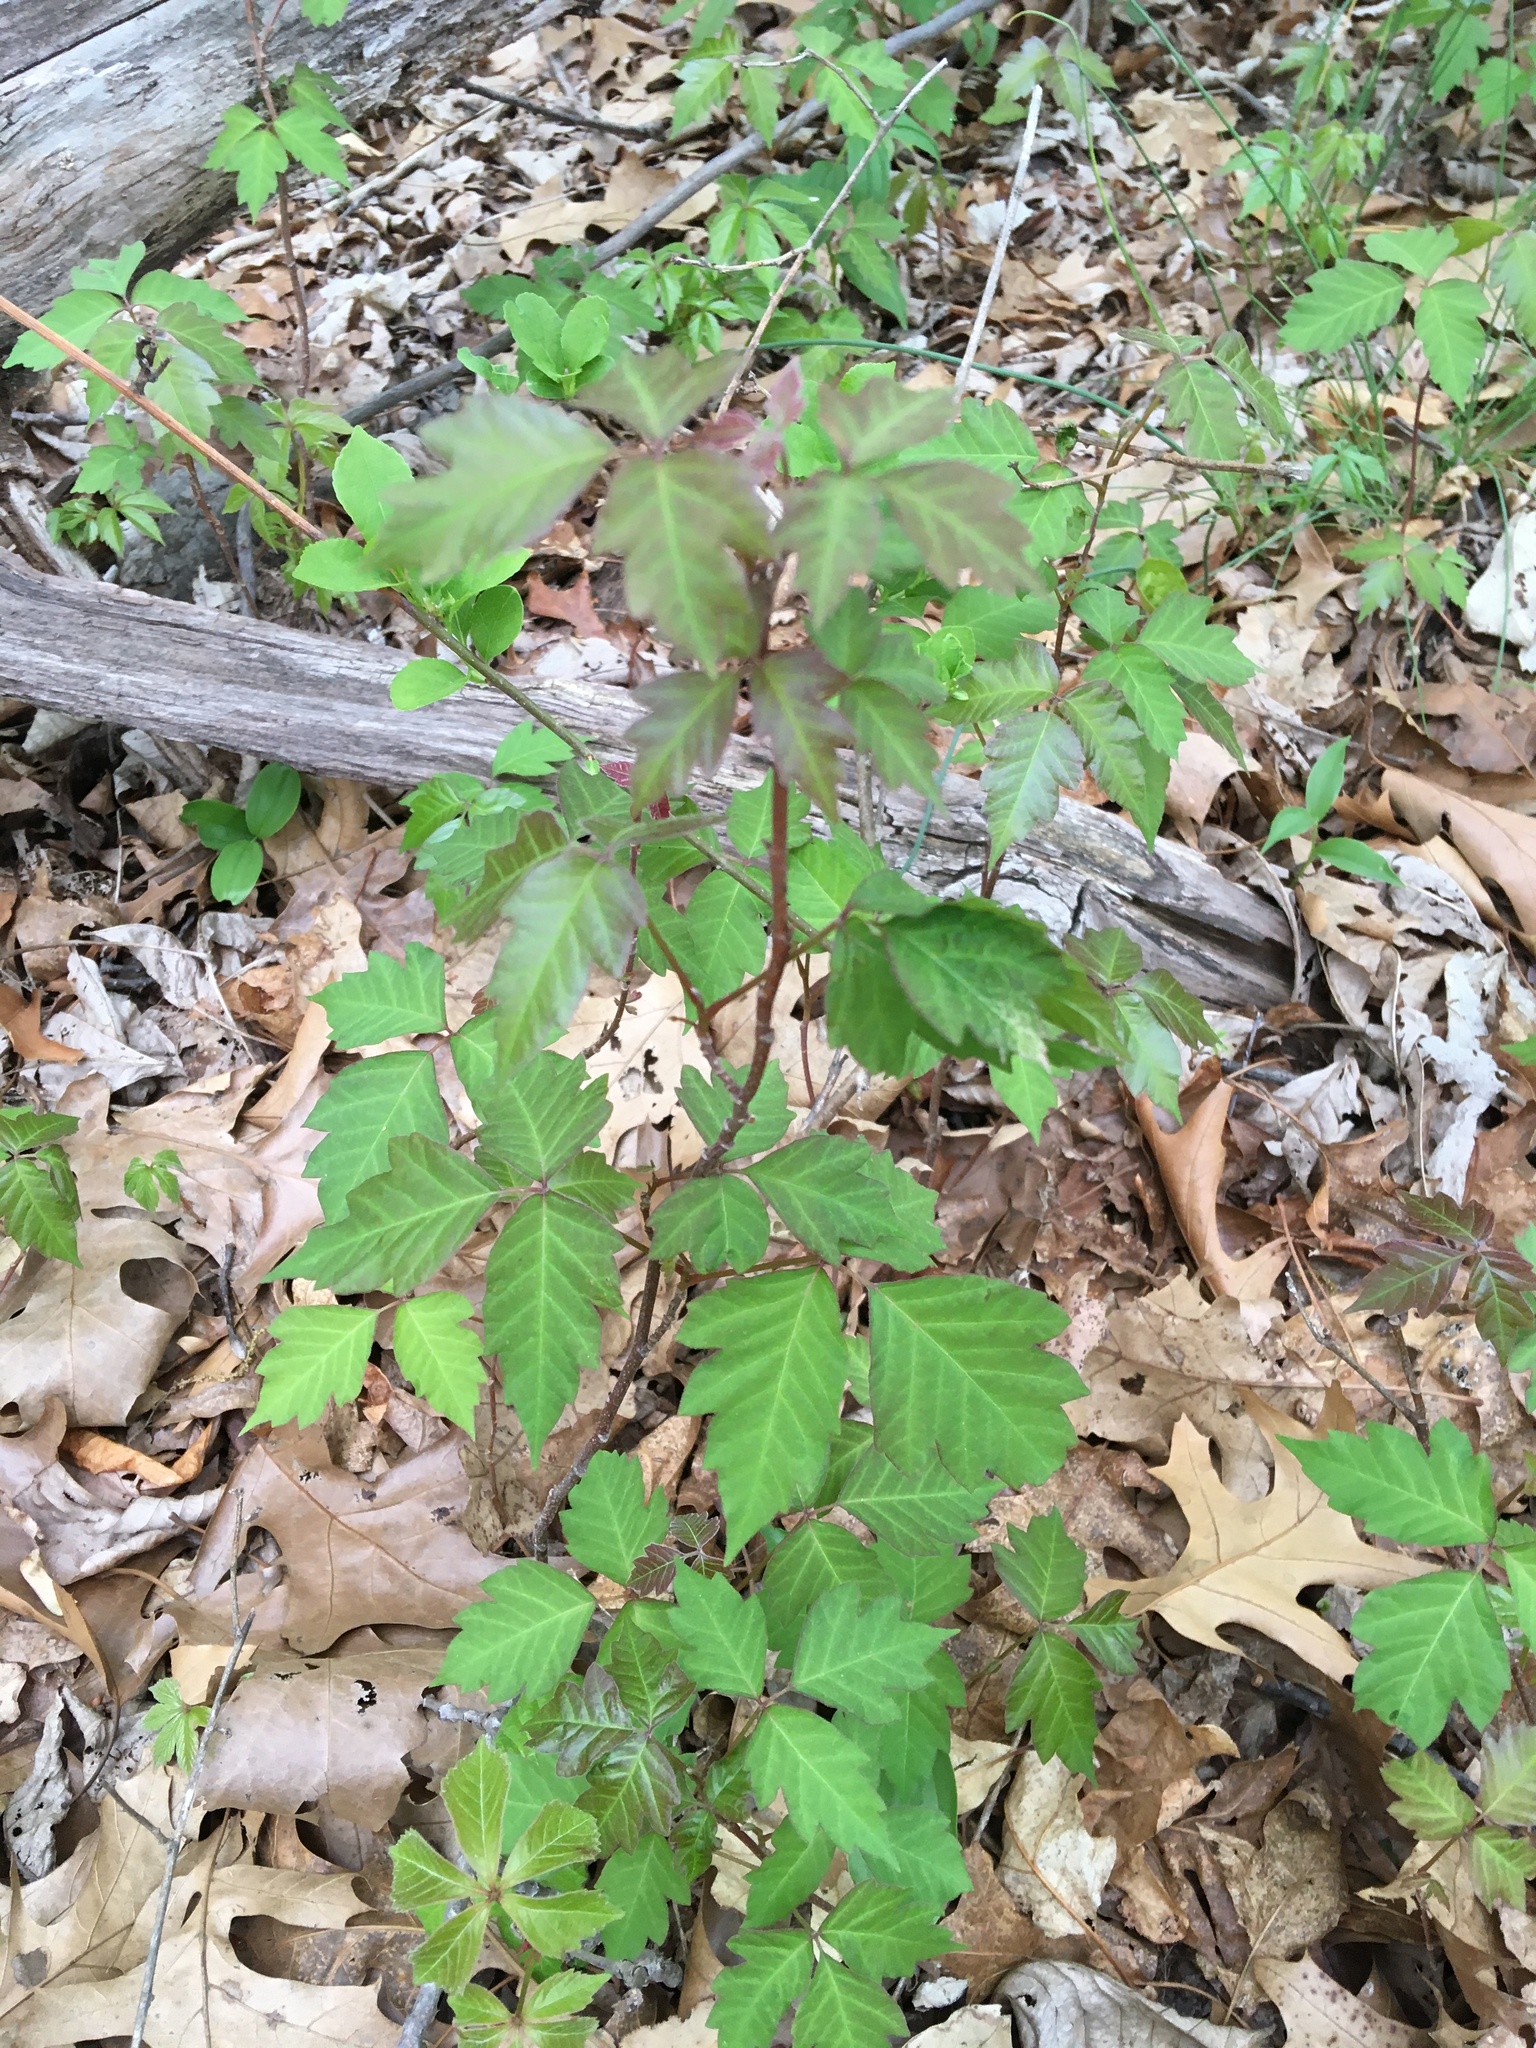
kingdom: Plantae
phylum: Tracheophyta
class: Magnoliopsida
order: Sapindales
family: Anacardiaceae
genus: Toxicodendron
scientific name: Toxicodendron radicans
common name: Poison ivy
